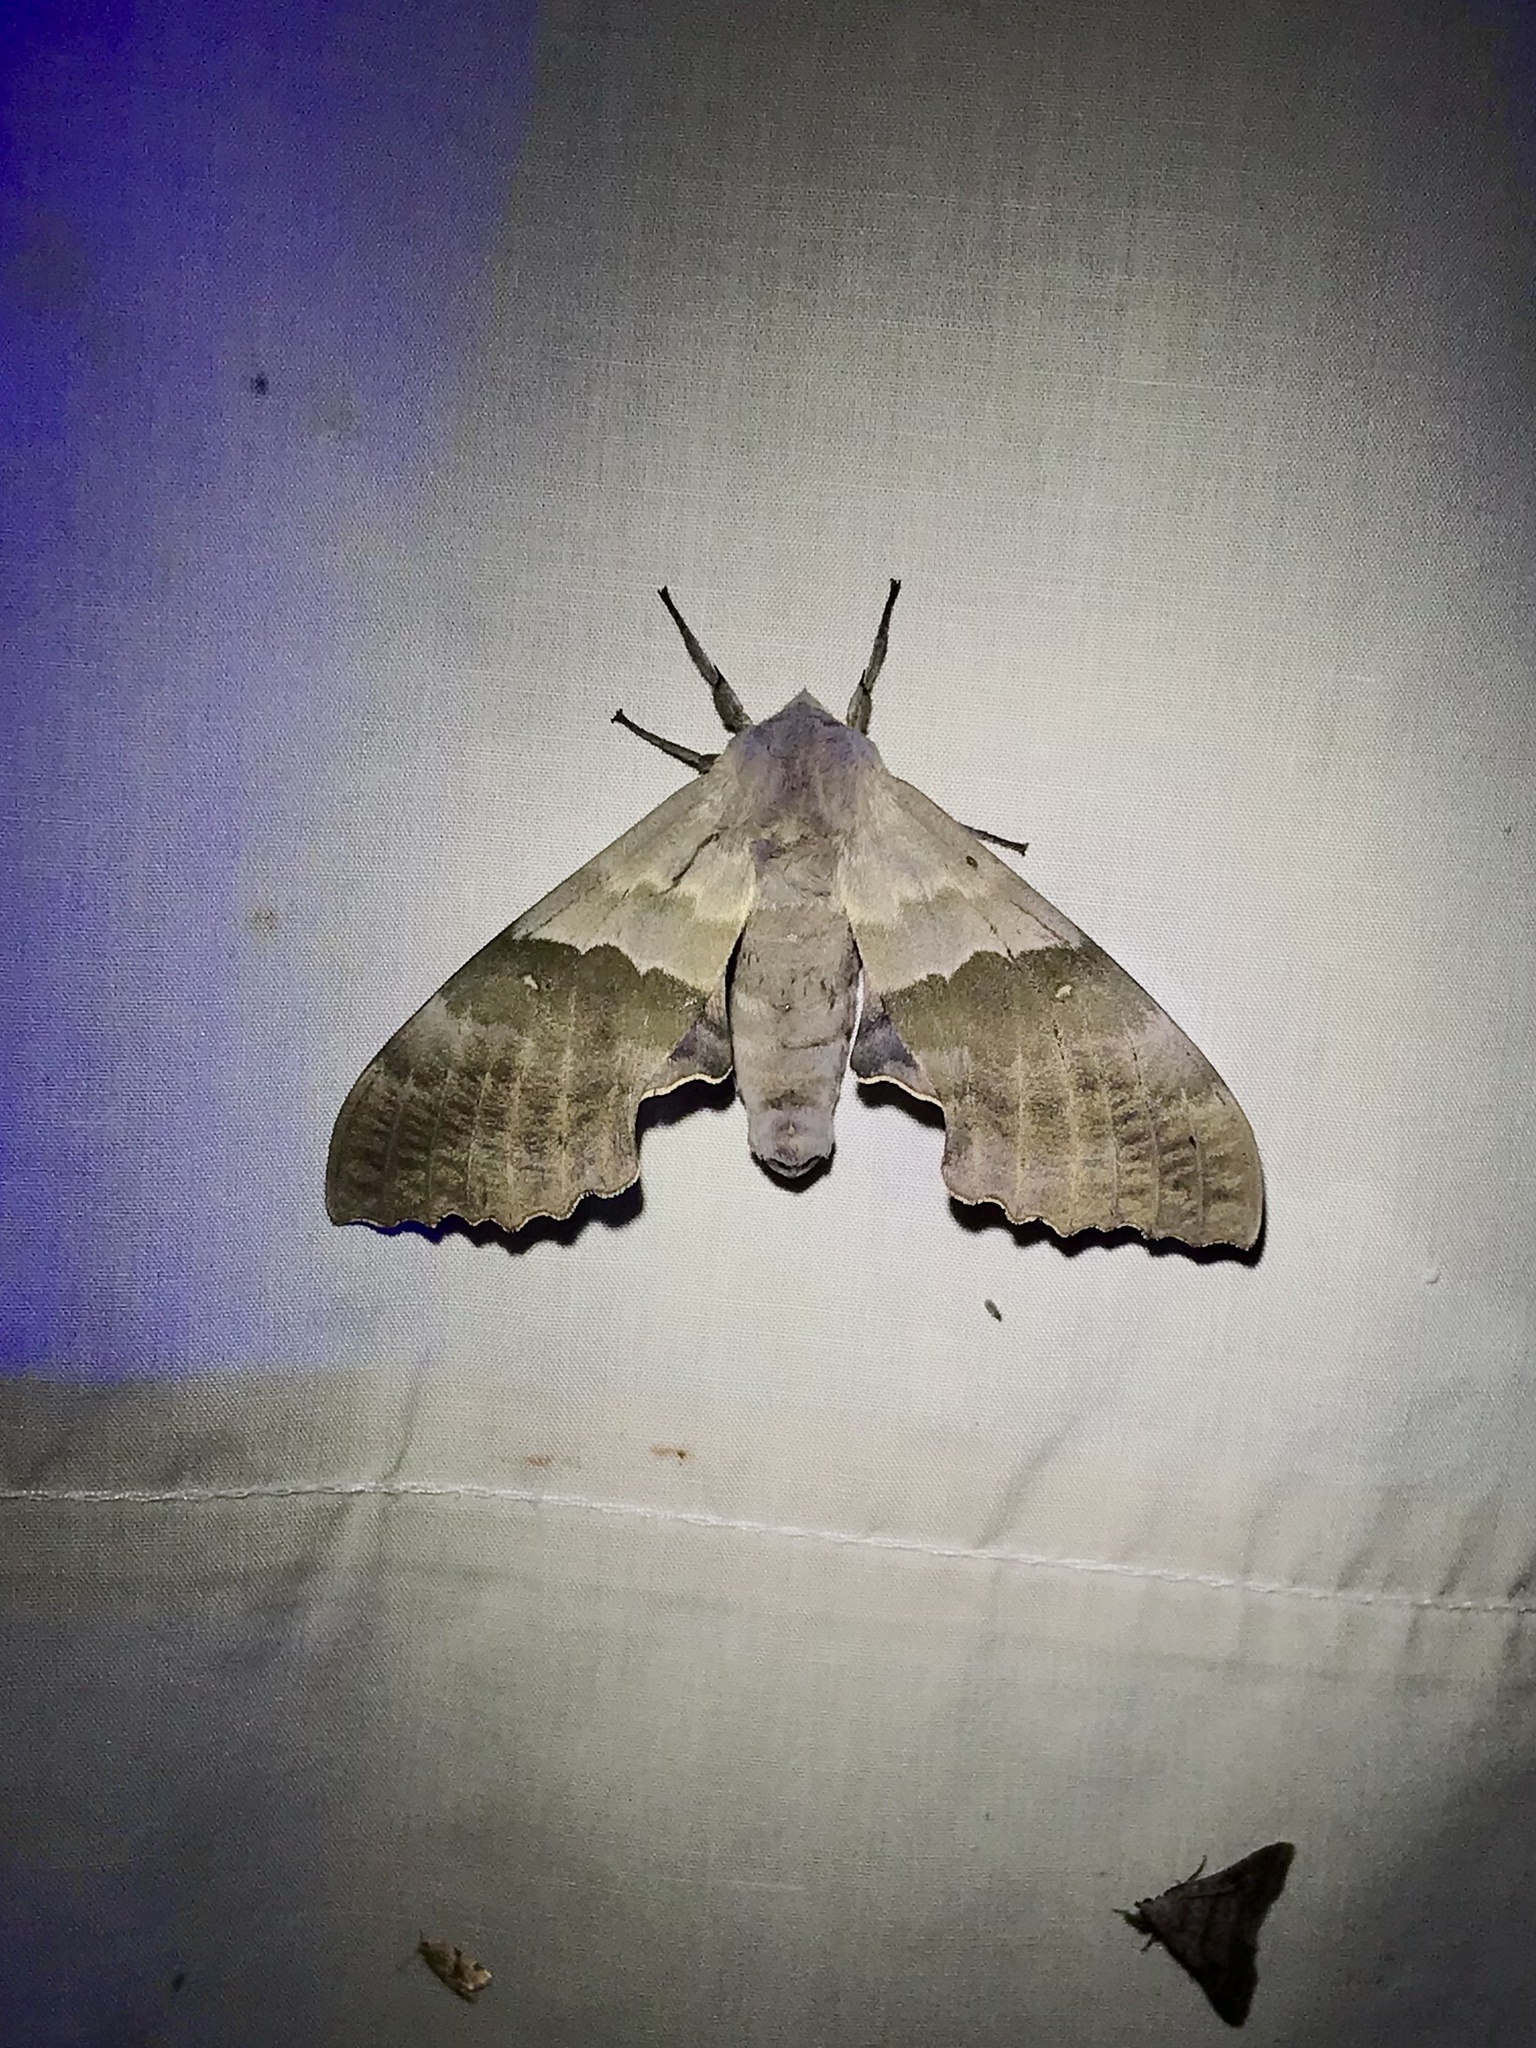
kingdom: Animalia
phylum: Arthropoda
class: Insecta
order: Lepidoptera
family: Sphingidae
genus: Pachysphinx
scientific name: Pachysphinx modesta
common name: Big poplar sphinx
